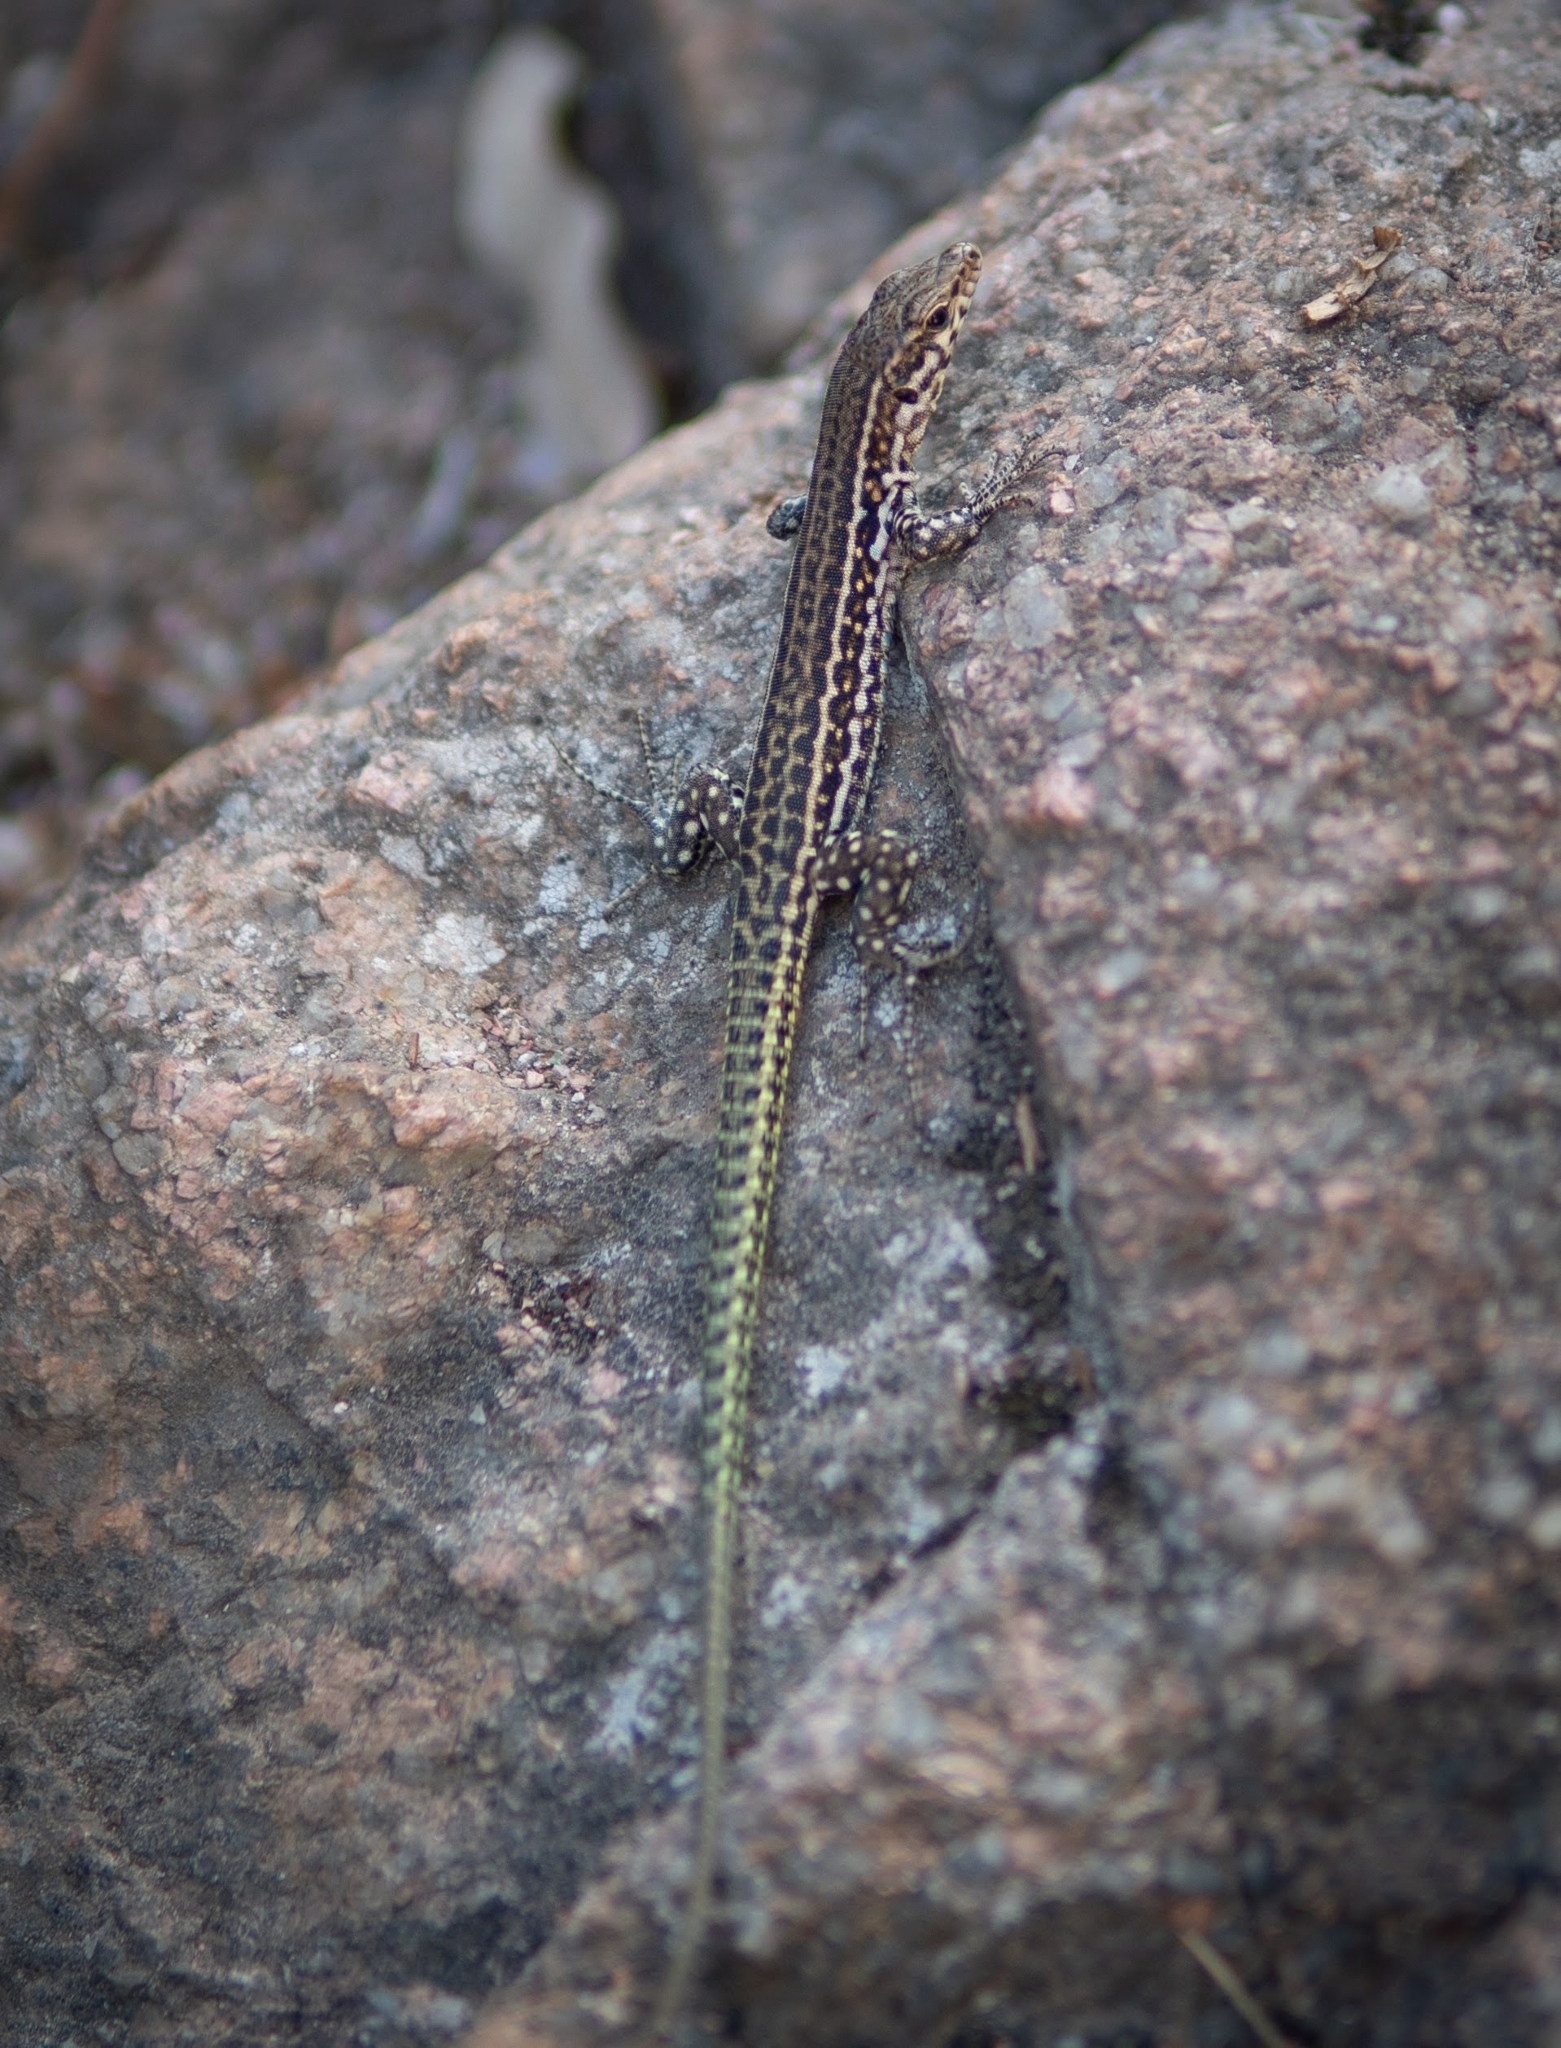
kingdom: Animalia
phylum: Chordata
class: Squamata
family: Lacertidae
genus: Podarcis
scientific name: Podarcis tiliguerta
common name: Tyrrhenian wall lizard
